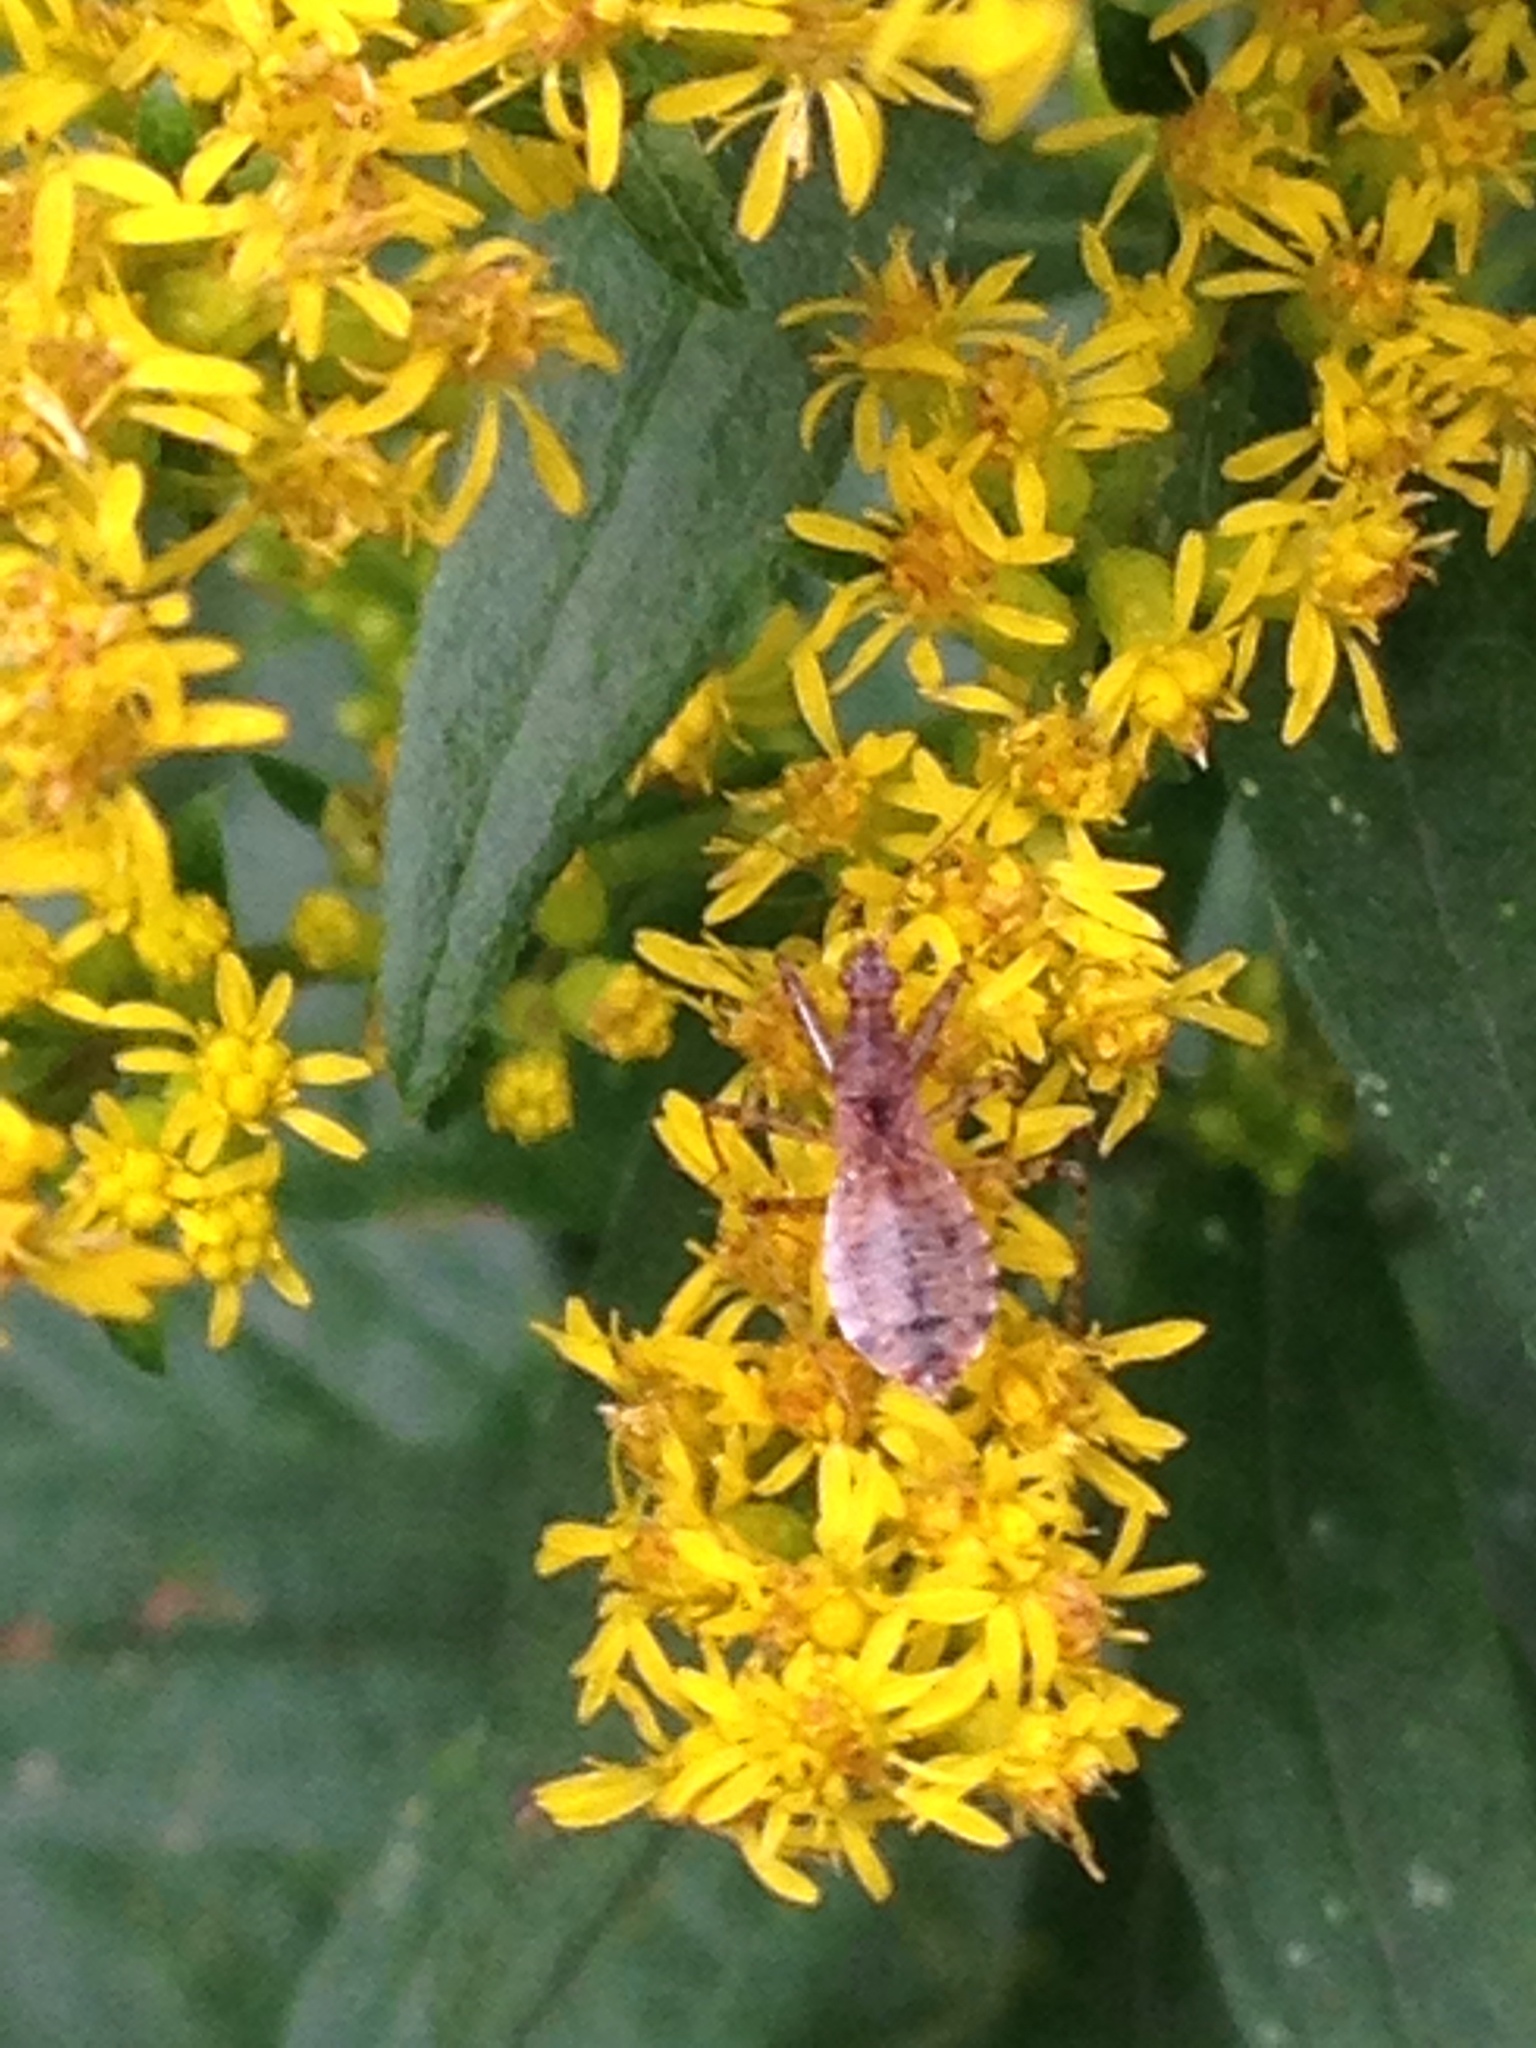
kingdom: Animalia
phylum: Arthropoda
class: Insecta
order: Hemiptera
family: Nabidae
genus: Hoplistoscelis
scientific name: Hoplistoscelis pallescens
